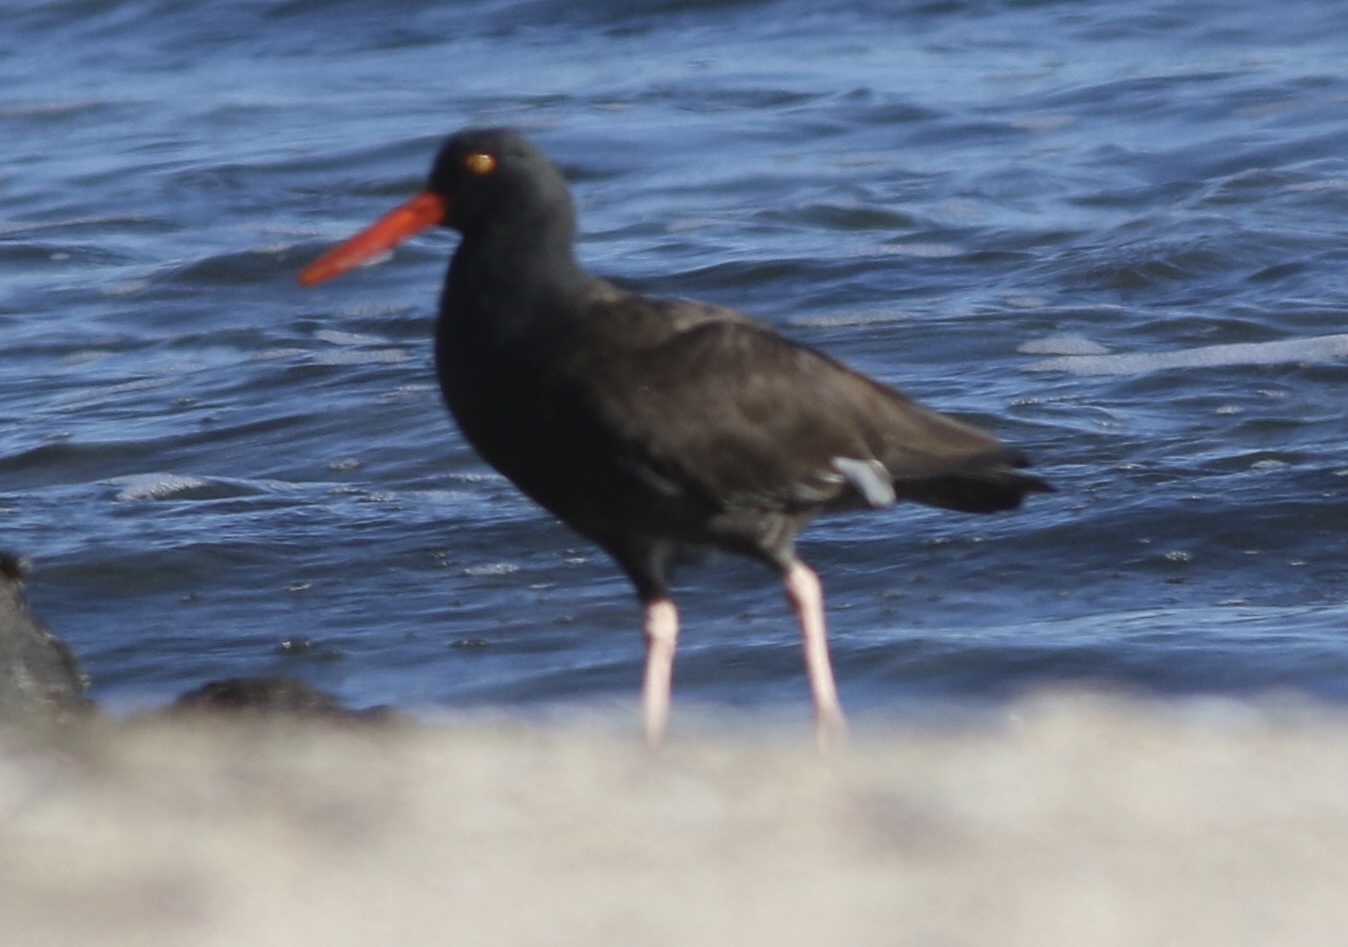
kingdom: Animalia
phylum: Chordata
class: Aves
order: Charadriiformes
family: Haematopodidae
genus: Haematopus
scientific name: Haematopus bachmani
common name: Black oystercatcher
